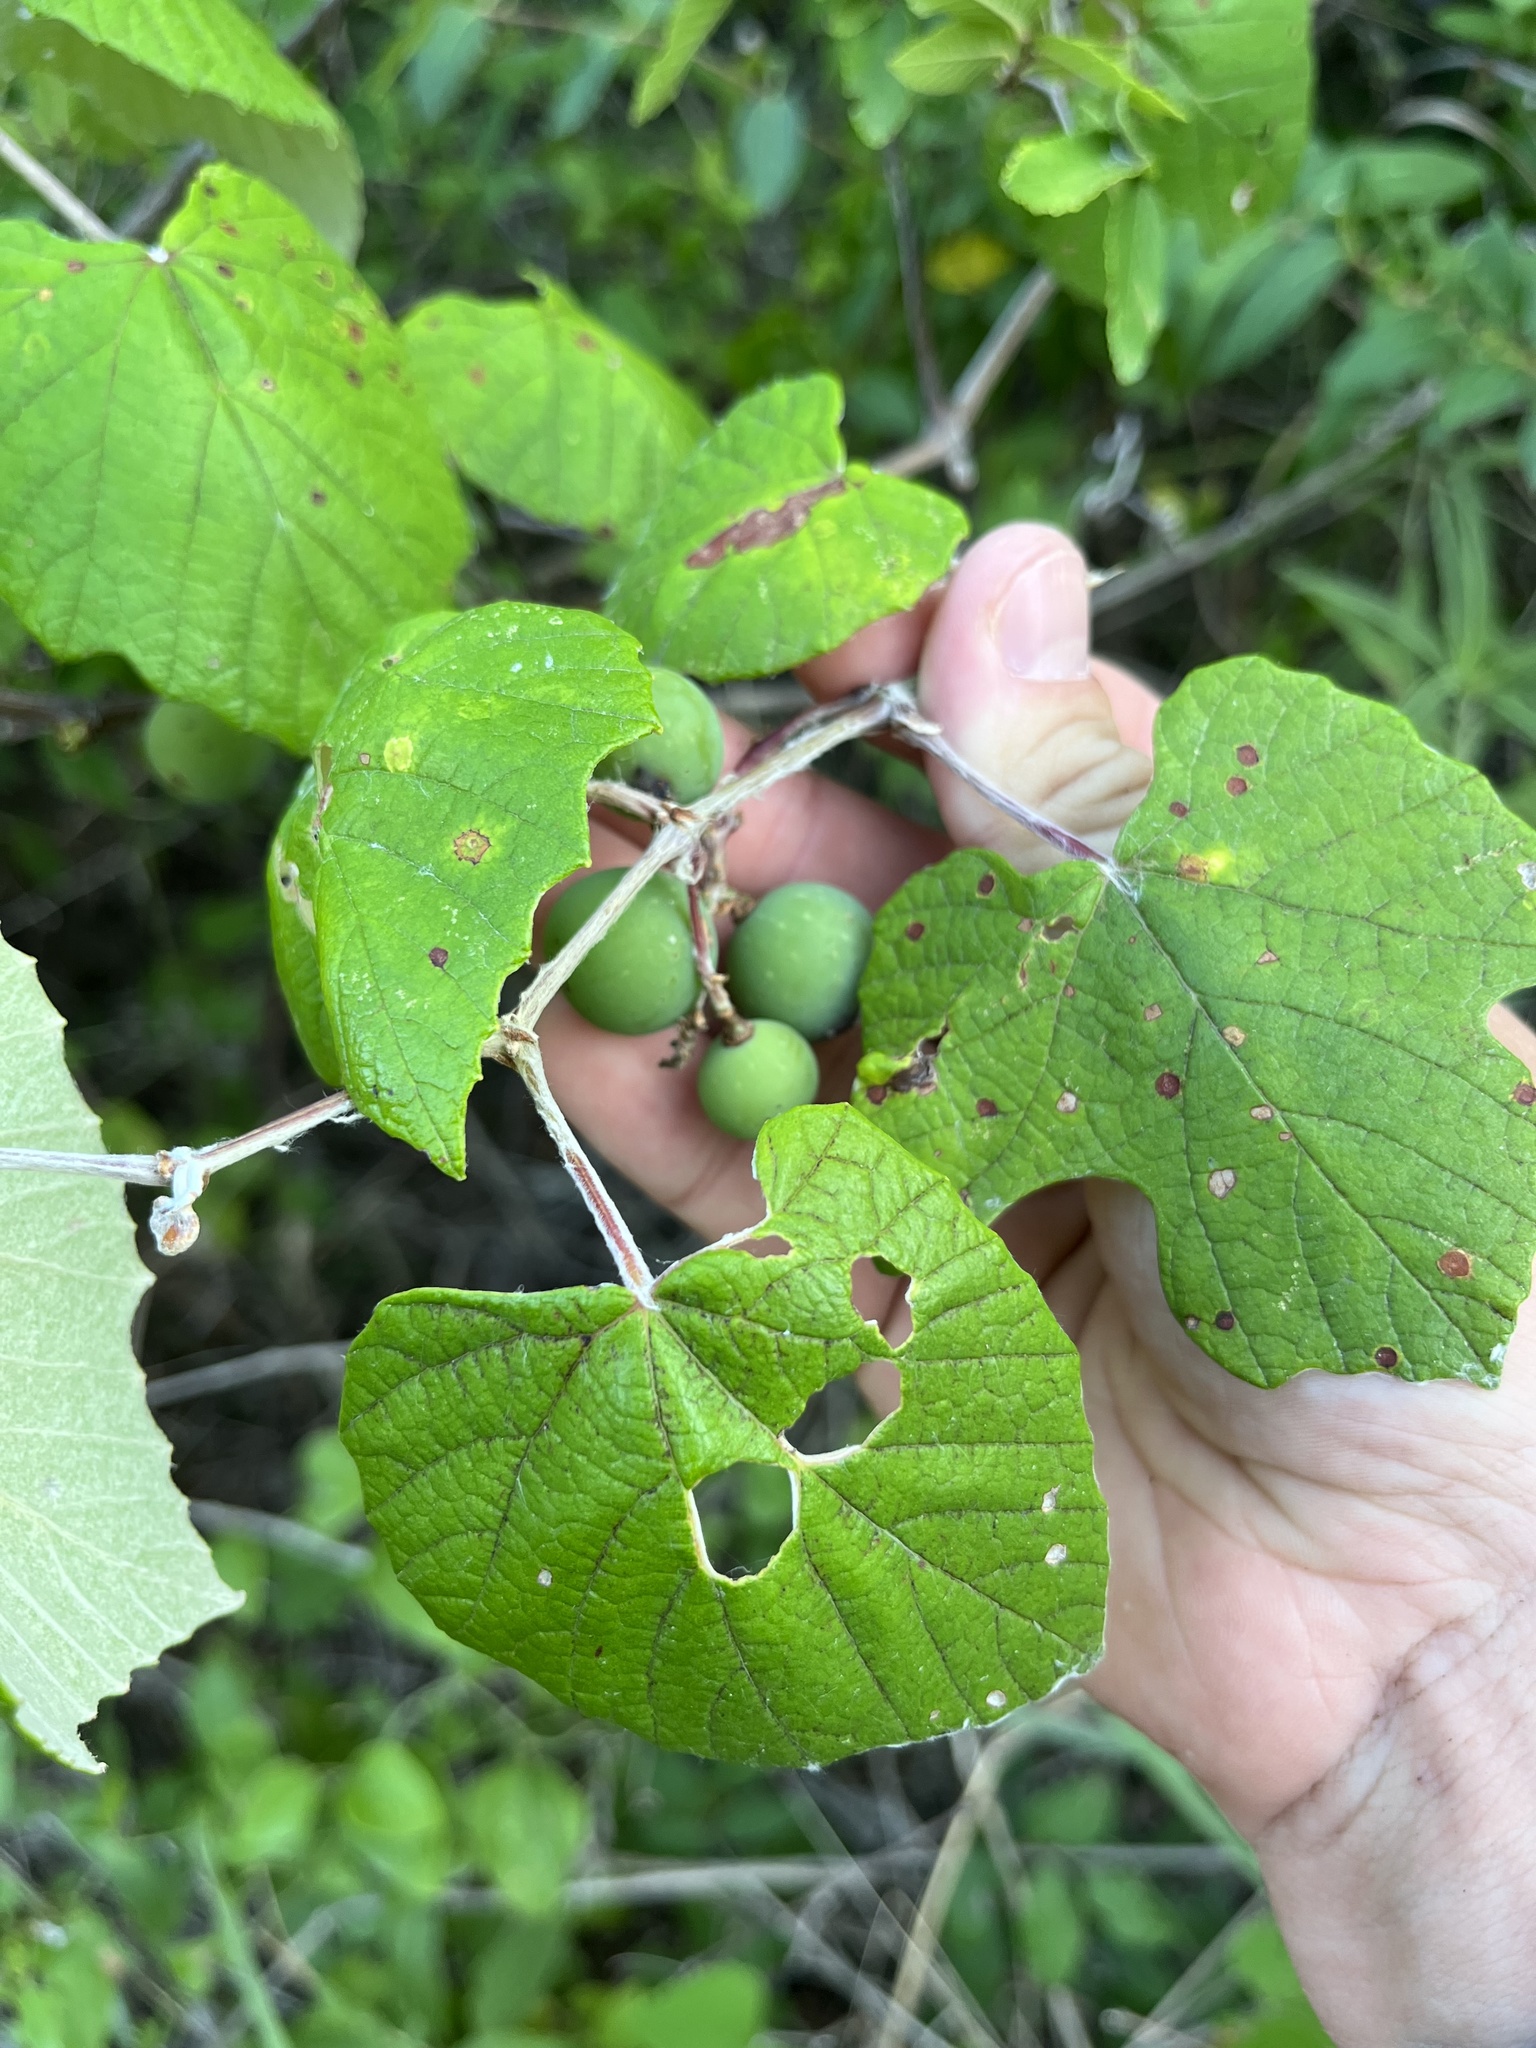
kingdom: Plantae
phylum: Tracheophyta
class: Magnoliopsida
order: Vitales
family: Vitaceae
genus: Vitis
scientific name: Vitis mustangensis
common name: Mustang grape
